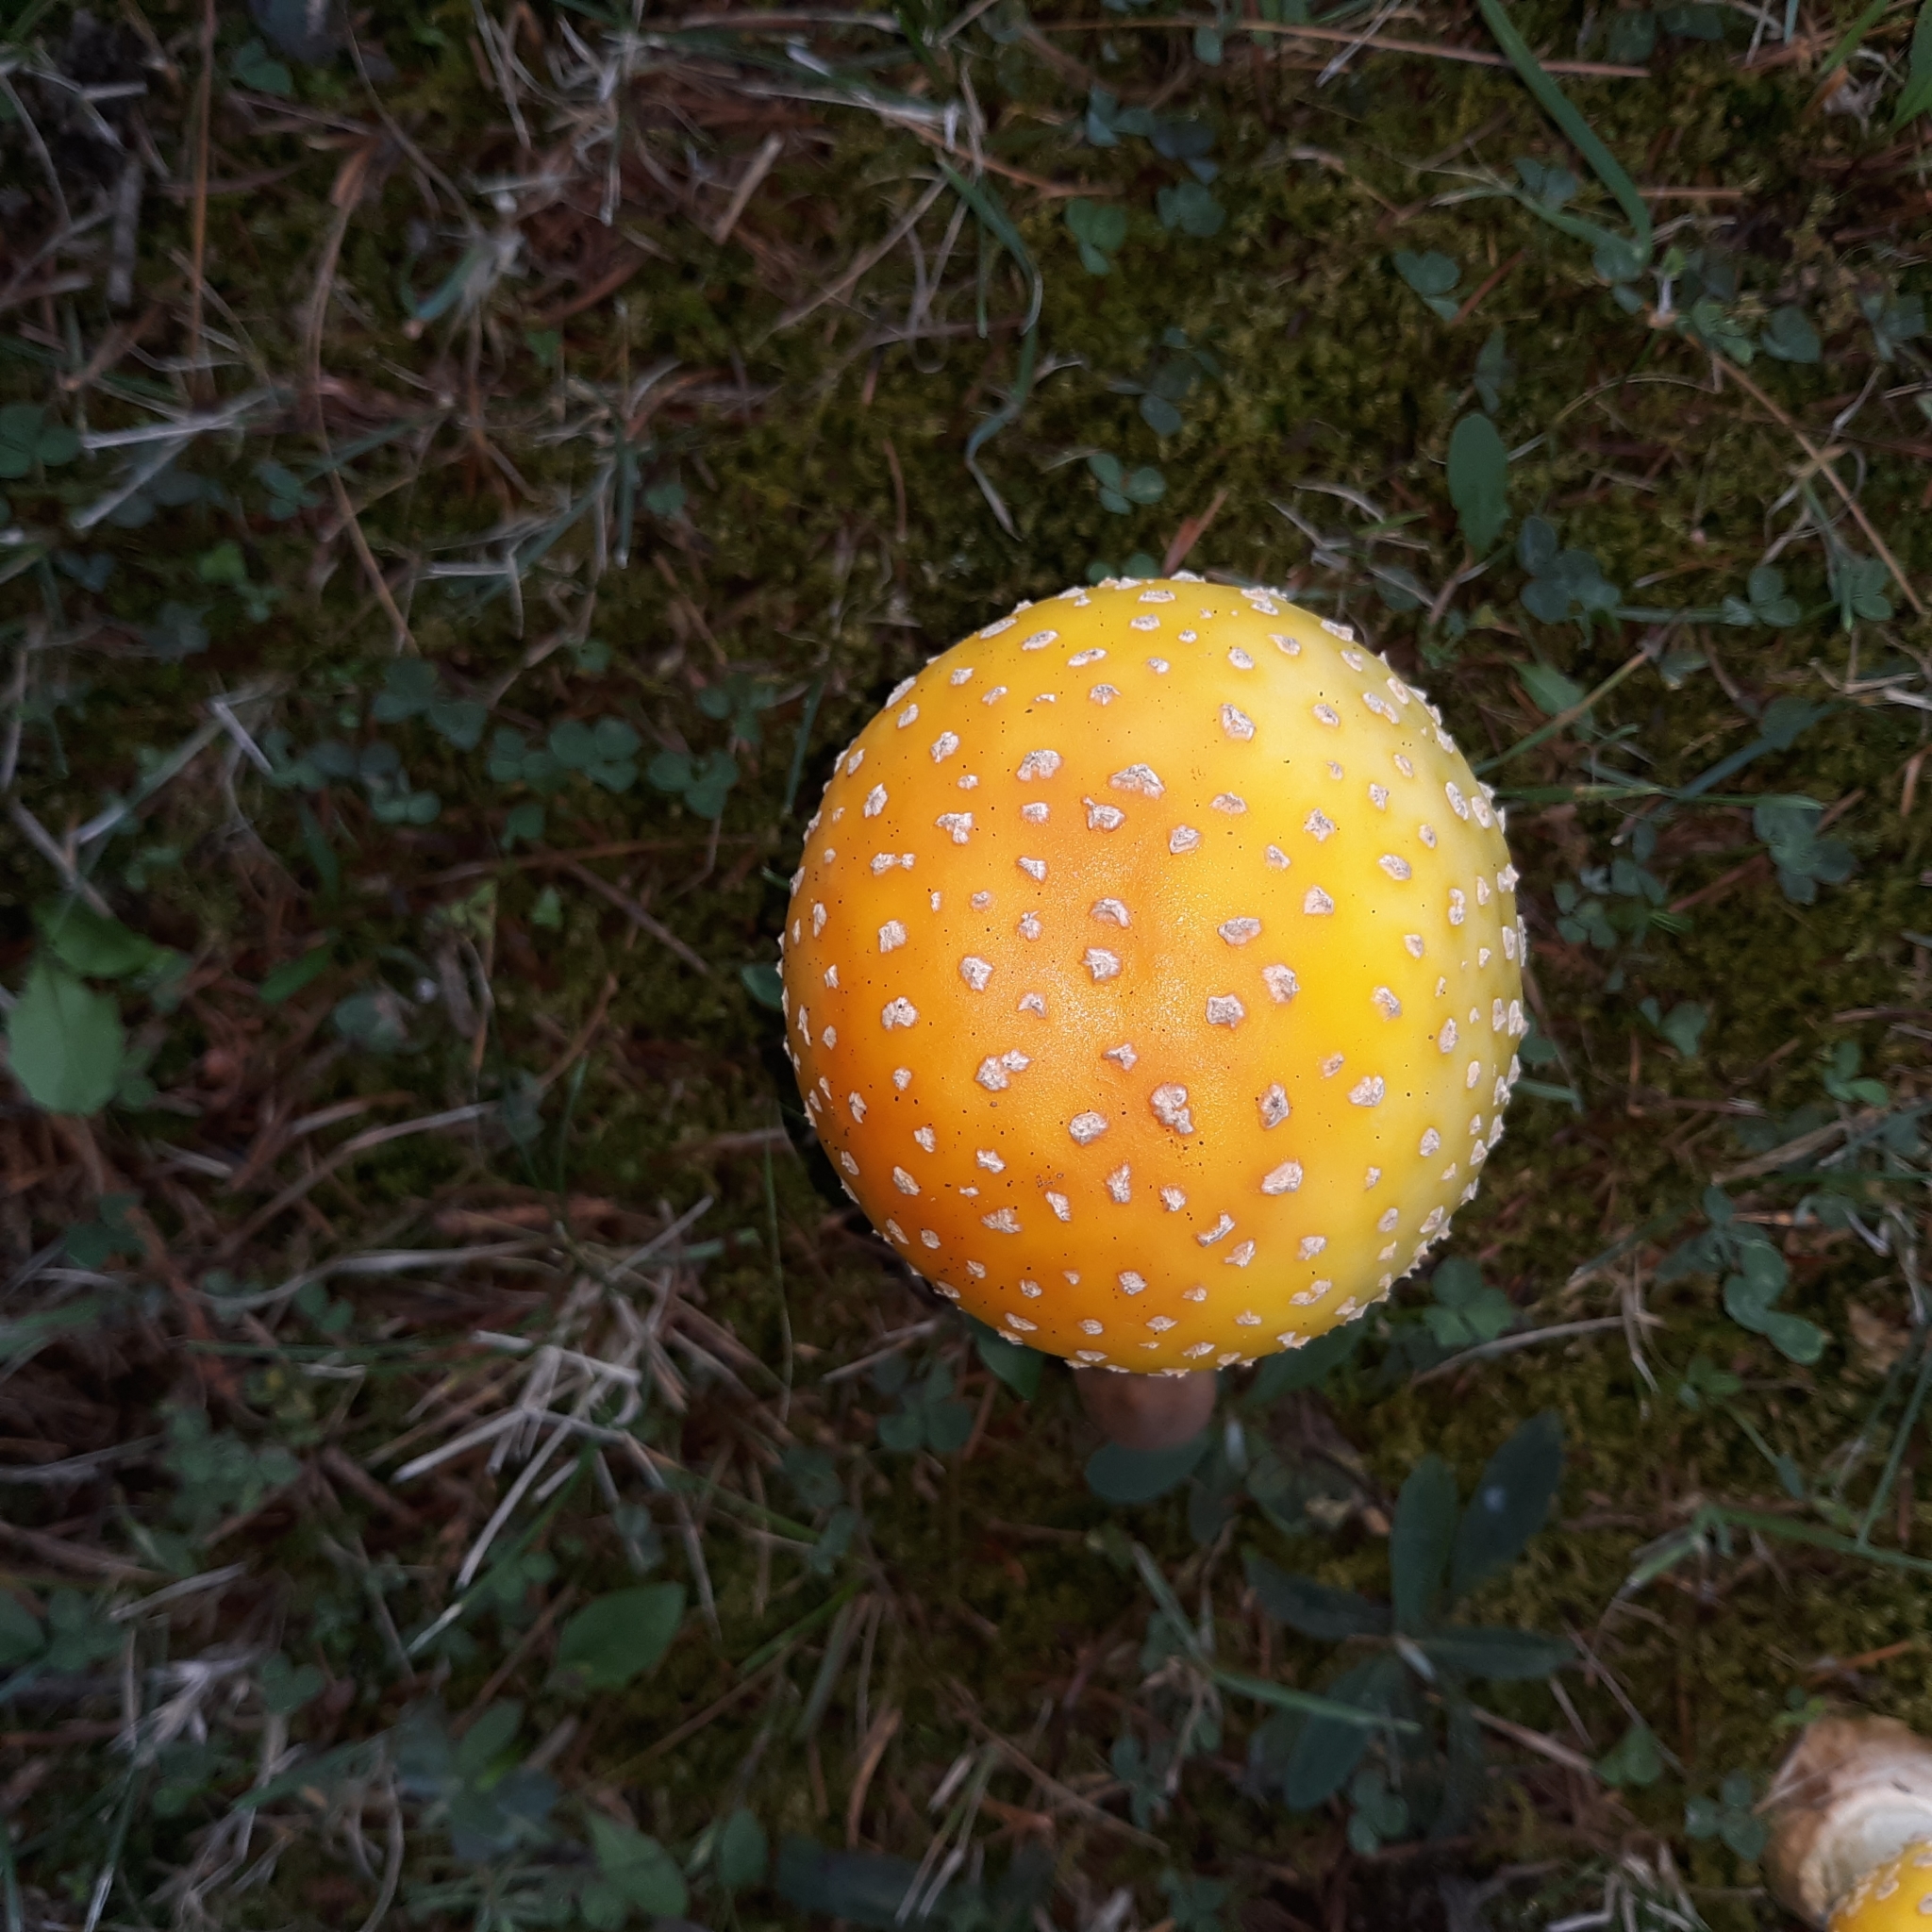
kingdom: Fungi
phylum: Basidiomycota
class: Agaricomycetes
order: Agaricales
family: Amanitaceae
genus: Amanita
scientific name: Amanita muscaria
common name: Fly agaric
